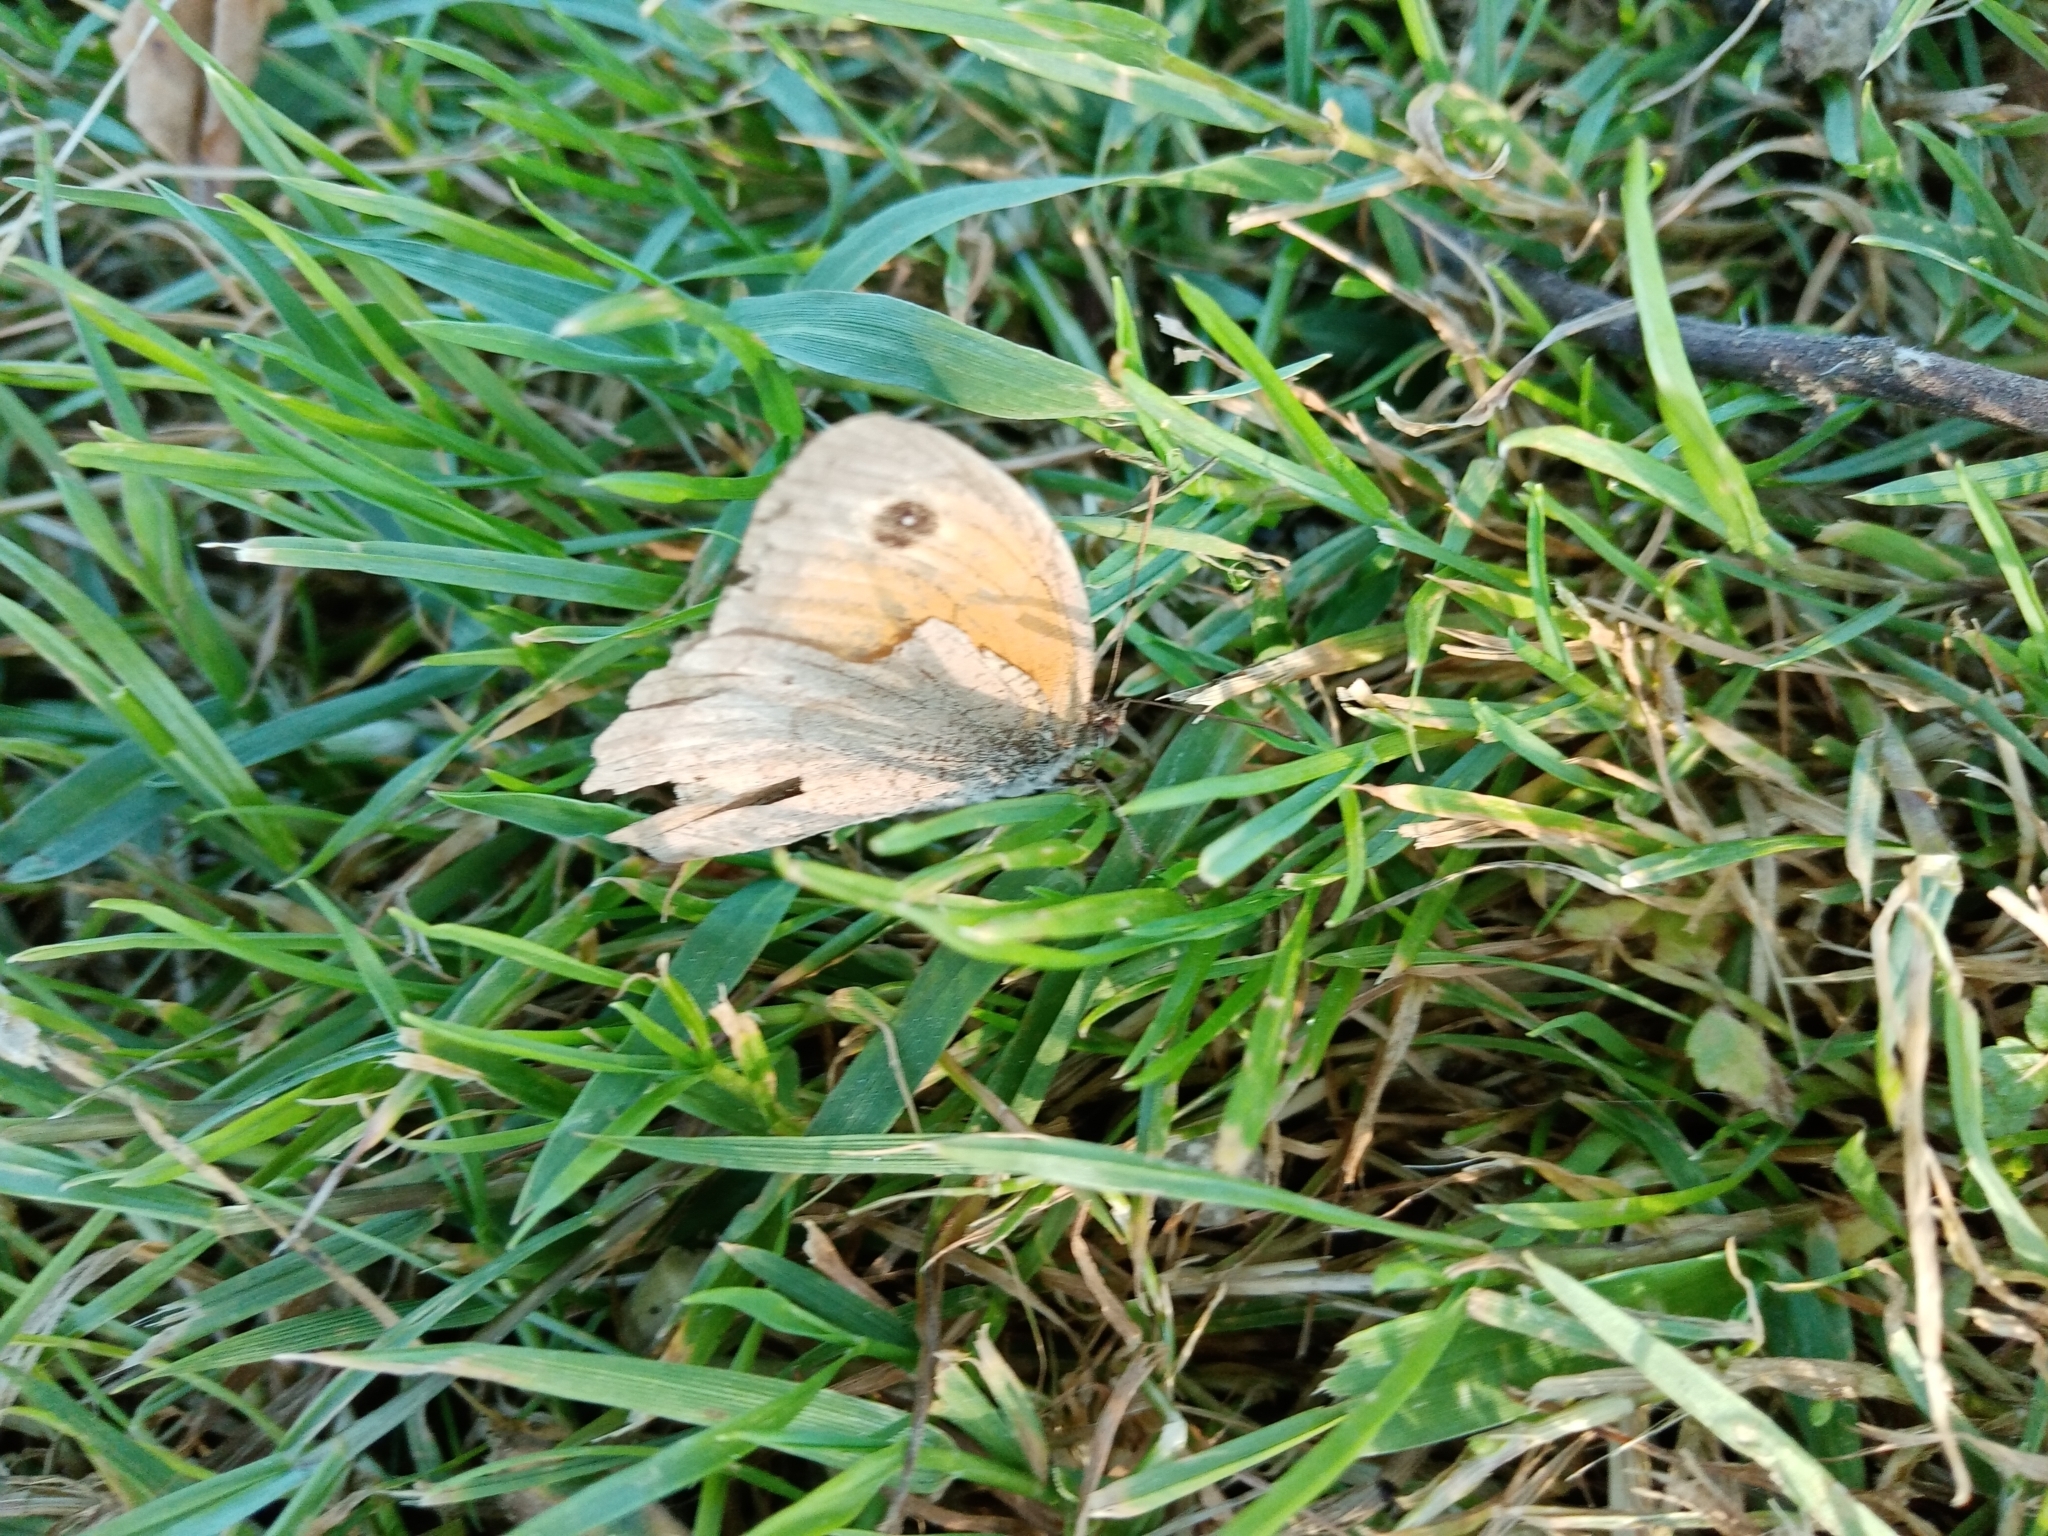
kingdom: Animalia
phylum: Arthropoda
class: Insecta
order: Lepidoptera
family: Nymphalidae
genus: Maniola
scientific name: Maniola jurtina
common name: Meadow brown
